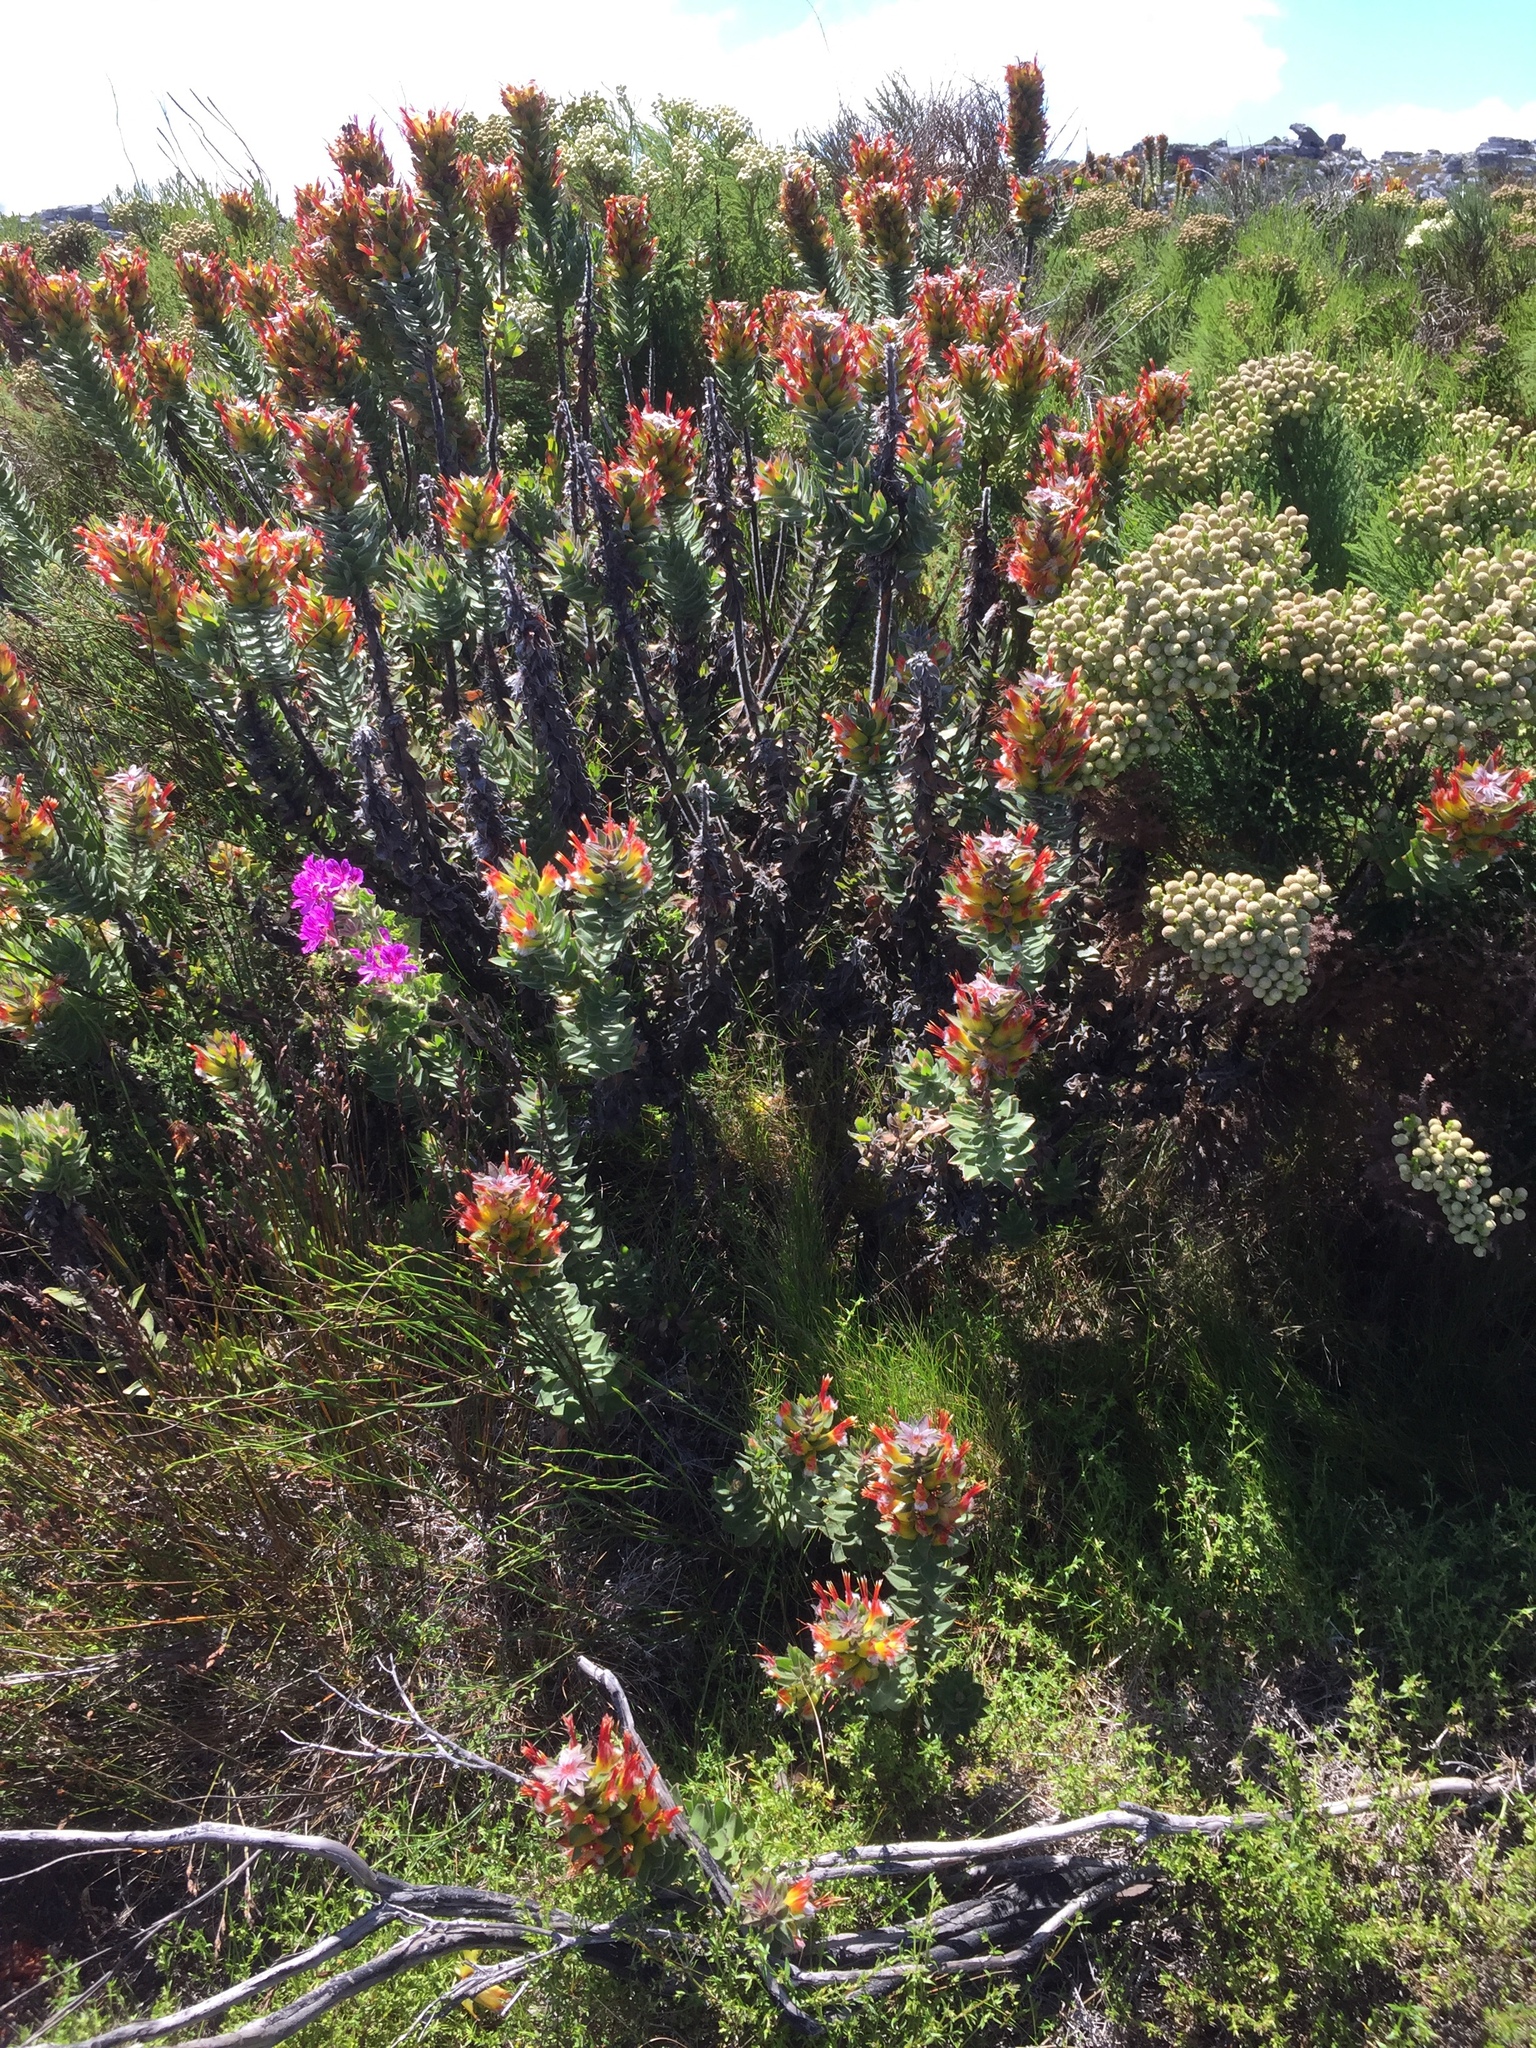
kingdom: Plantae
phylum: Tracheophyta
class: Magnoliopsida
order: Proteales
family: Proteaceae
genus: Mimetes
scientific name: Mimetes hirtus
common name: Marsh pagoda
